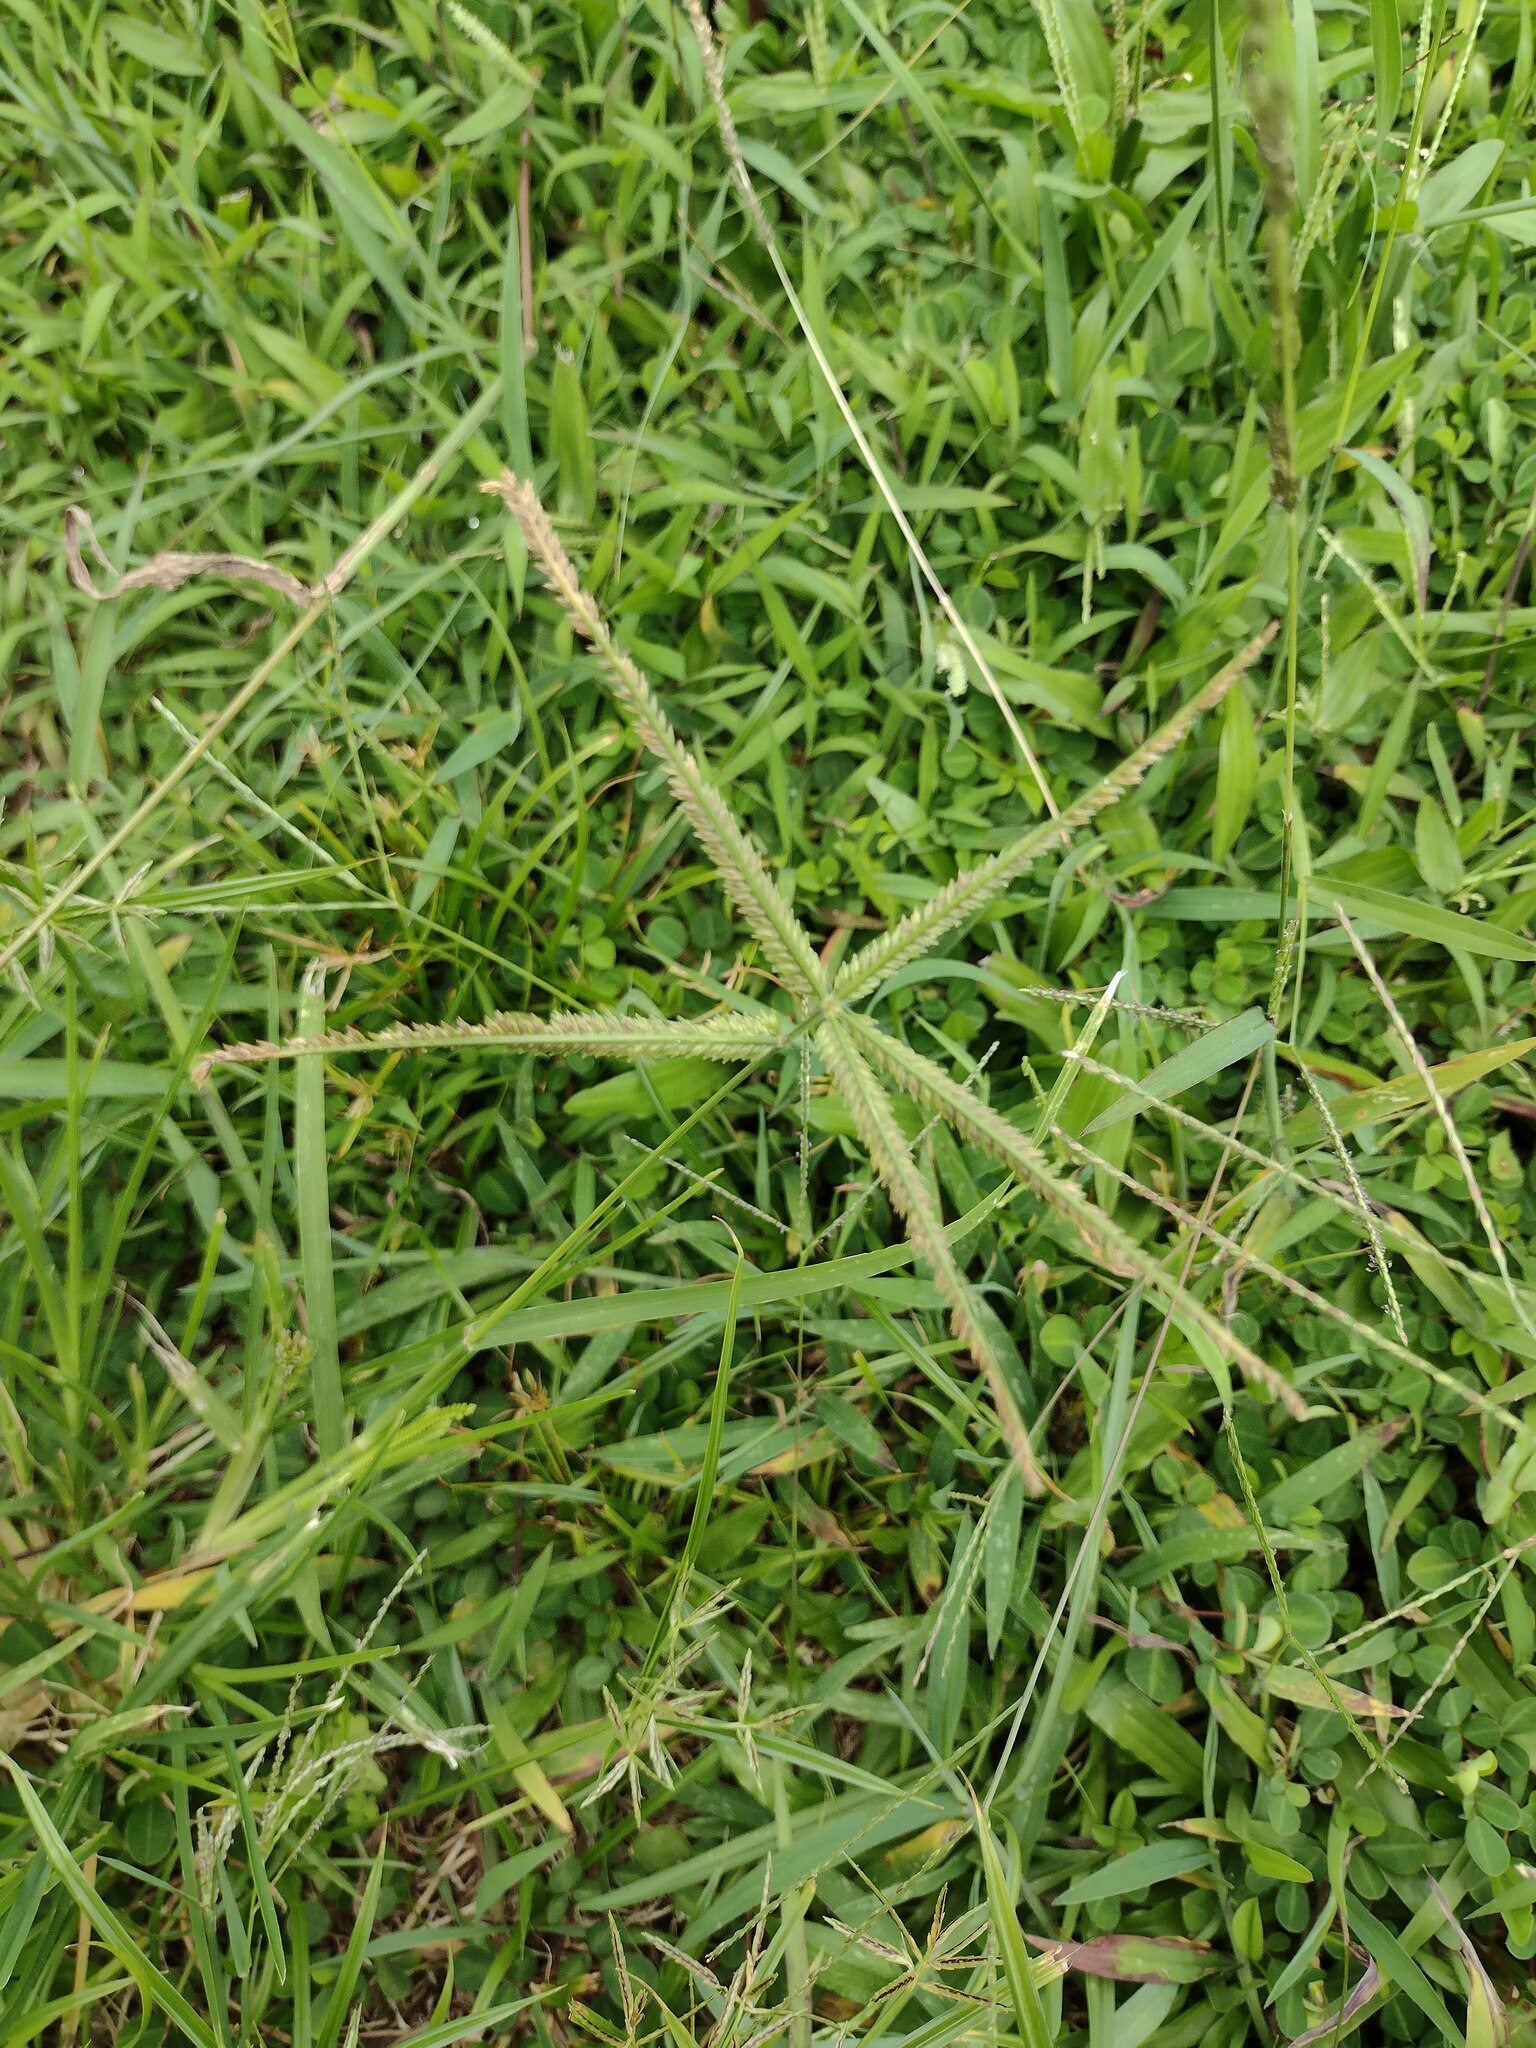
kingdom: Plantae
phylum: Tracheophyta
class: Liliopsida
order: Poales
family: Poaceae
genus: Eleusine
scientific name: Eleusine indica
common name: Yard-grass
